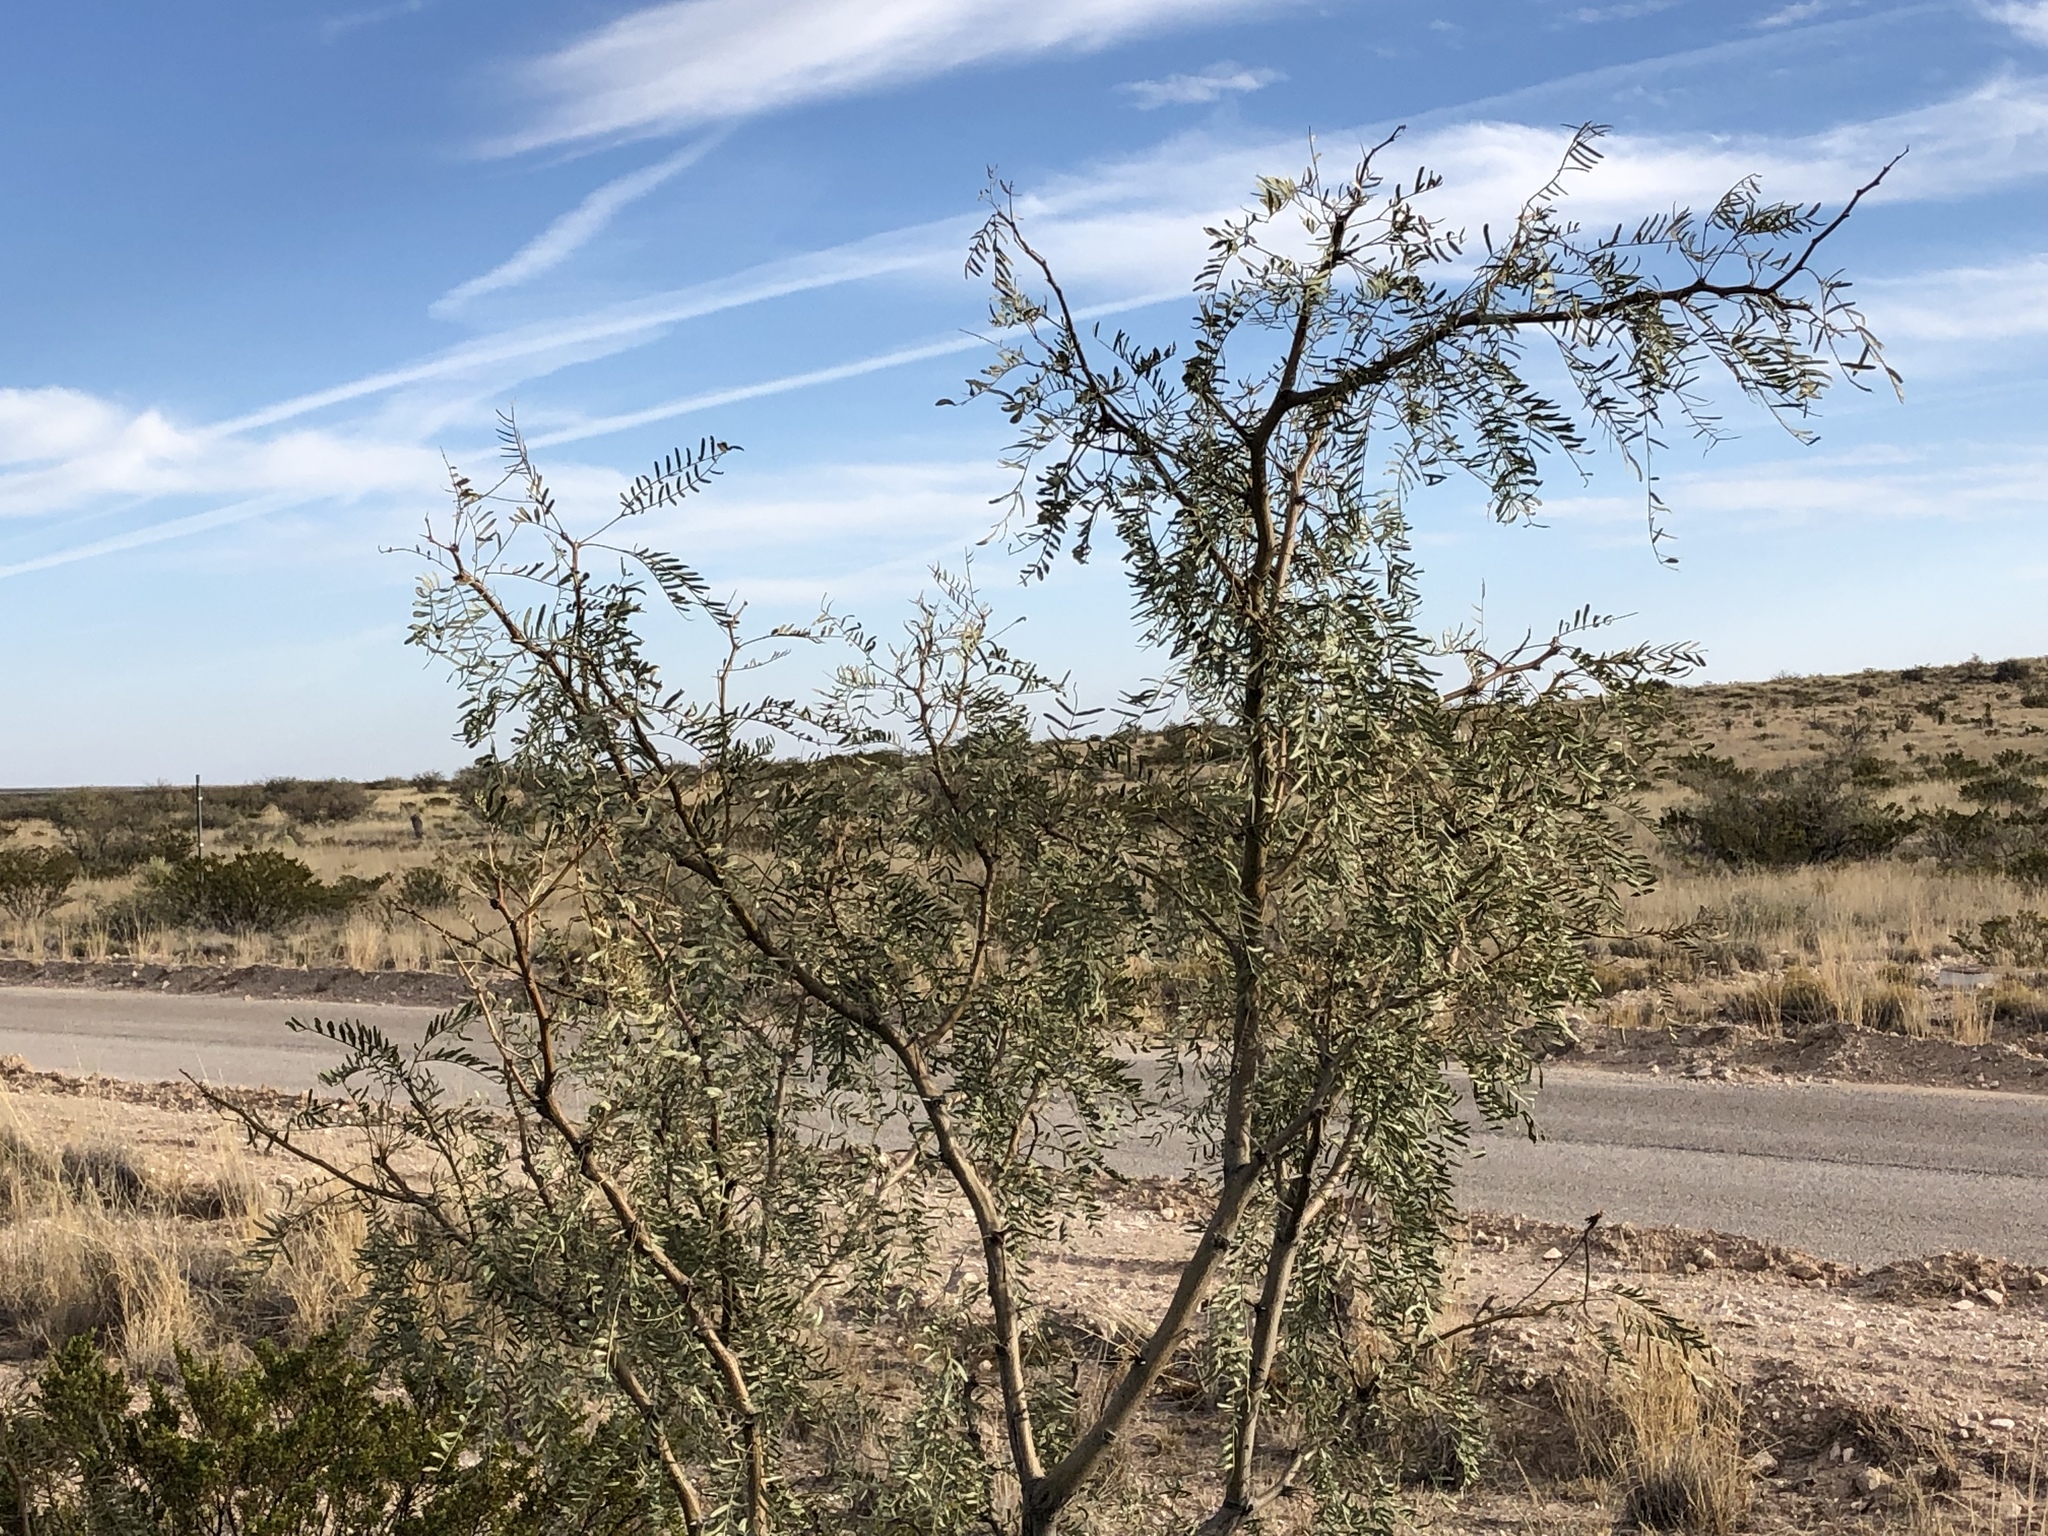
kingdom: Plantae
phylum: Tracheophyta
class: Magnoliopsida
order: Fabales
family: Fabaceae
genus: Prosopis
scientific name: Prosopis glandulosa
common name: Honey mesquite
